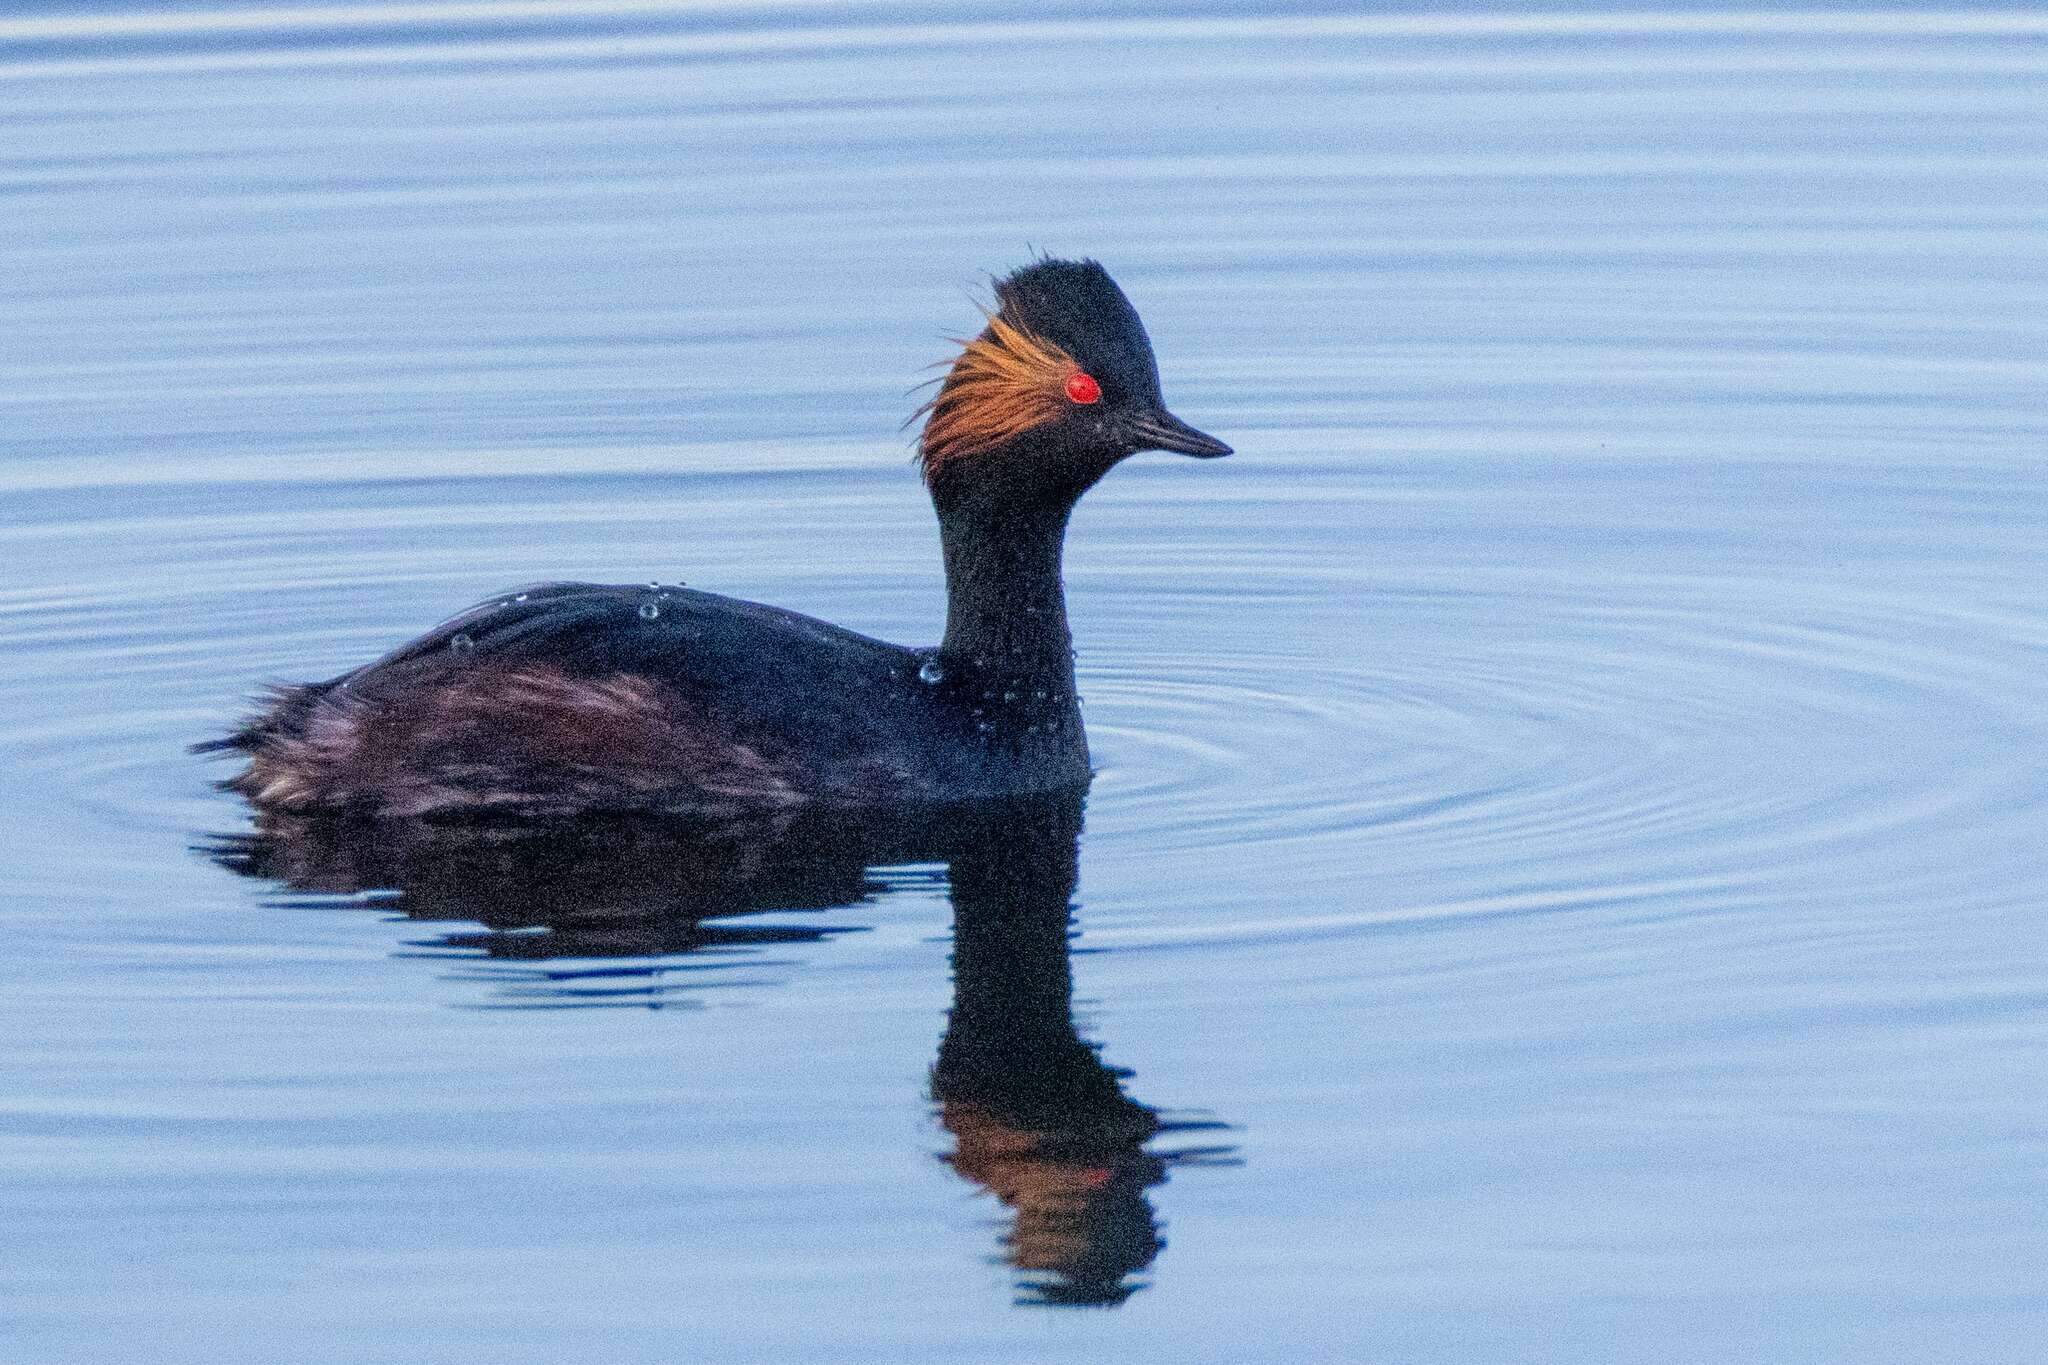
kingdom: Animalia
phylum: Chordata
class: Aves
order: Podicipediformes
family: Podicipedidae
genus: Podiceps
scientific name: Podiceps nigricollis
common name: Black-necked grebe
